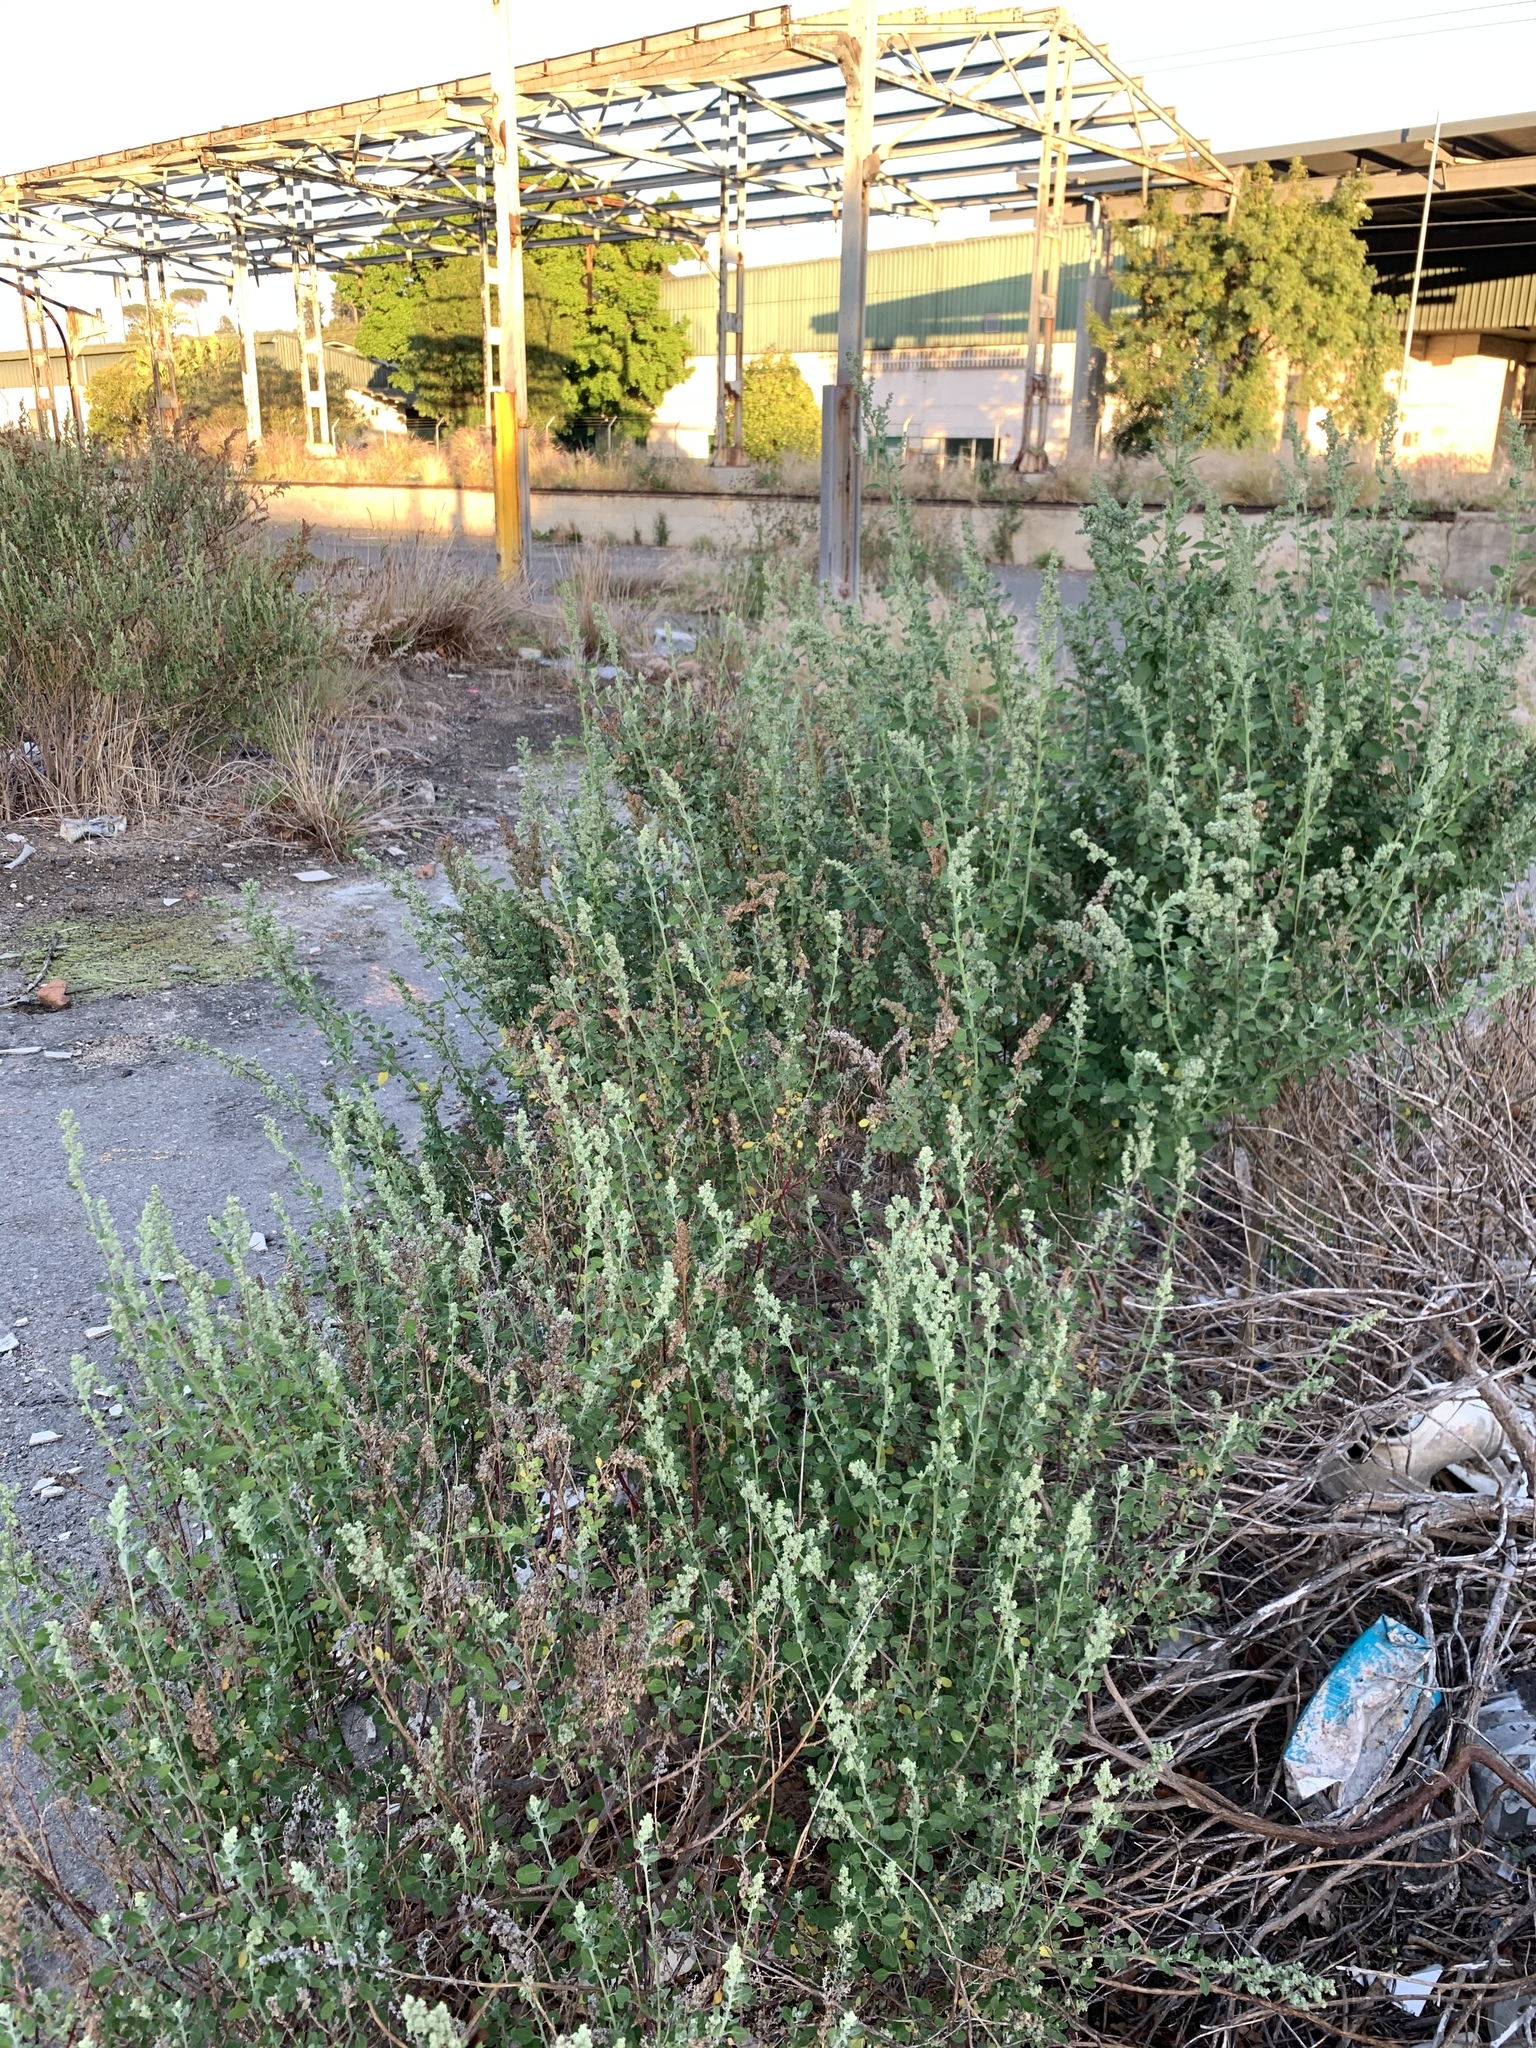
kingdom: Plantae
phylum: Tracheophyta
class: Magnoliopsida
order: Caryophyllales
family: Amaranthaceae
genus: Chenopodium
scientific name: Chenopodium album
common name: Fat-hen
